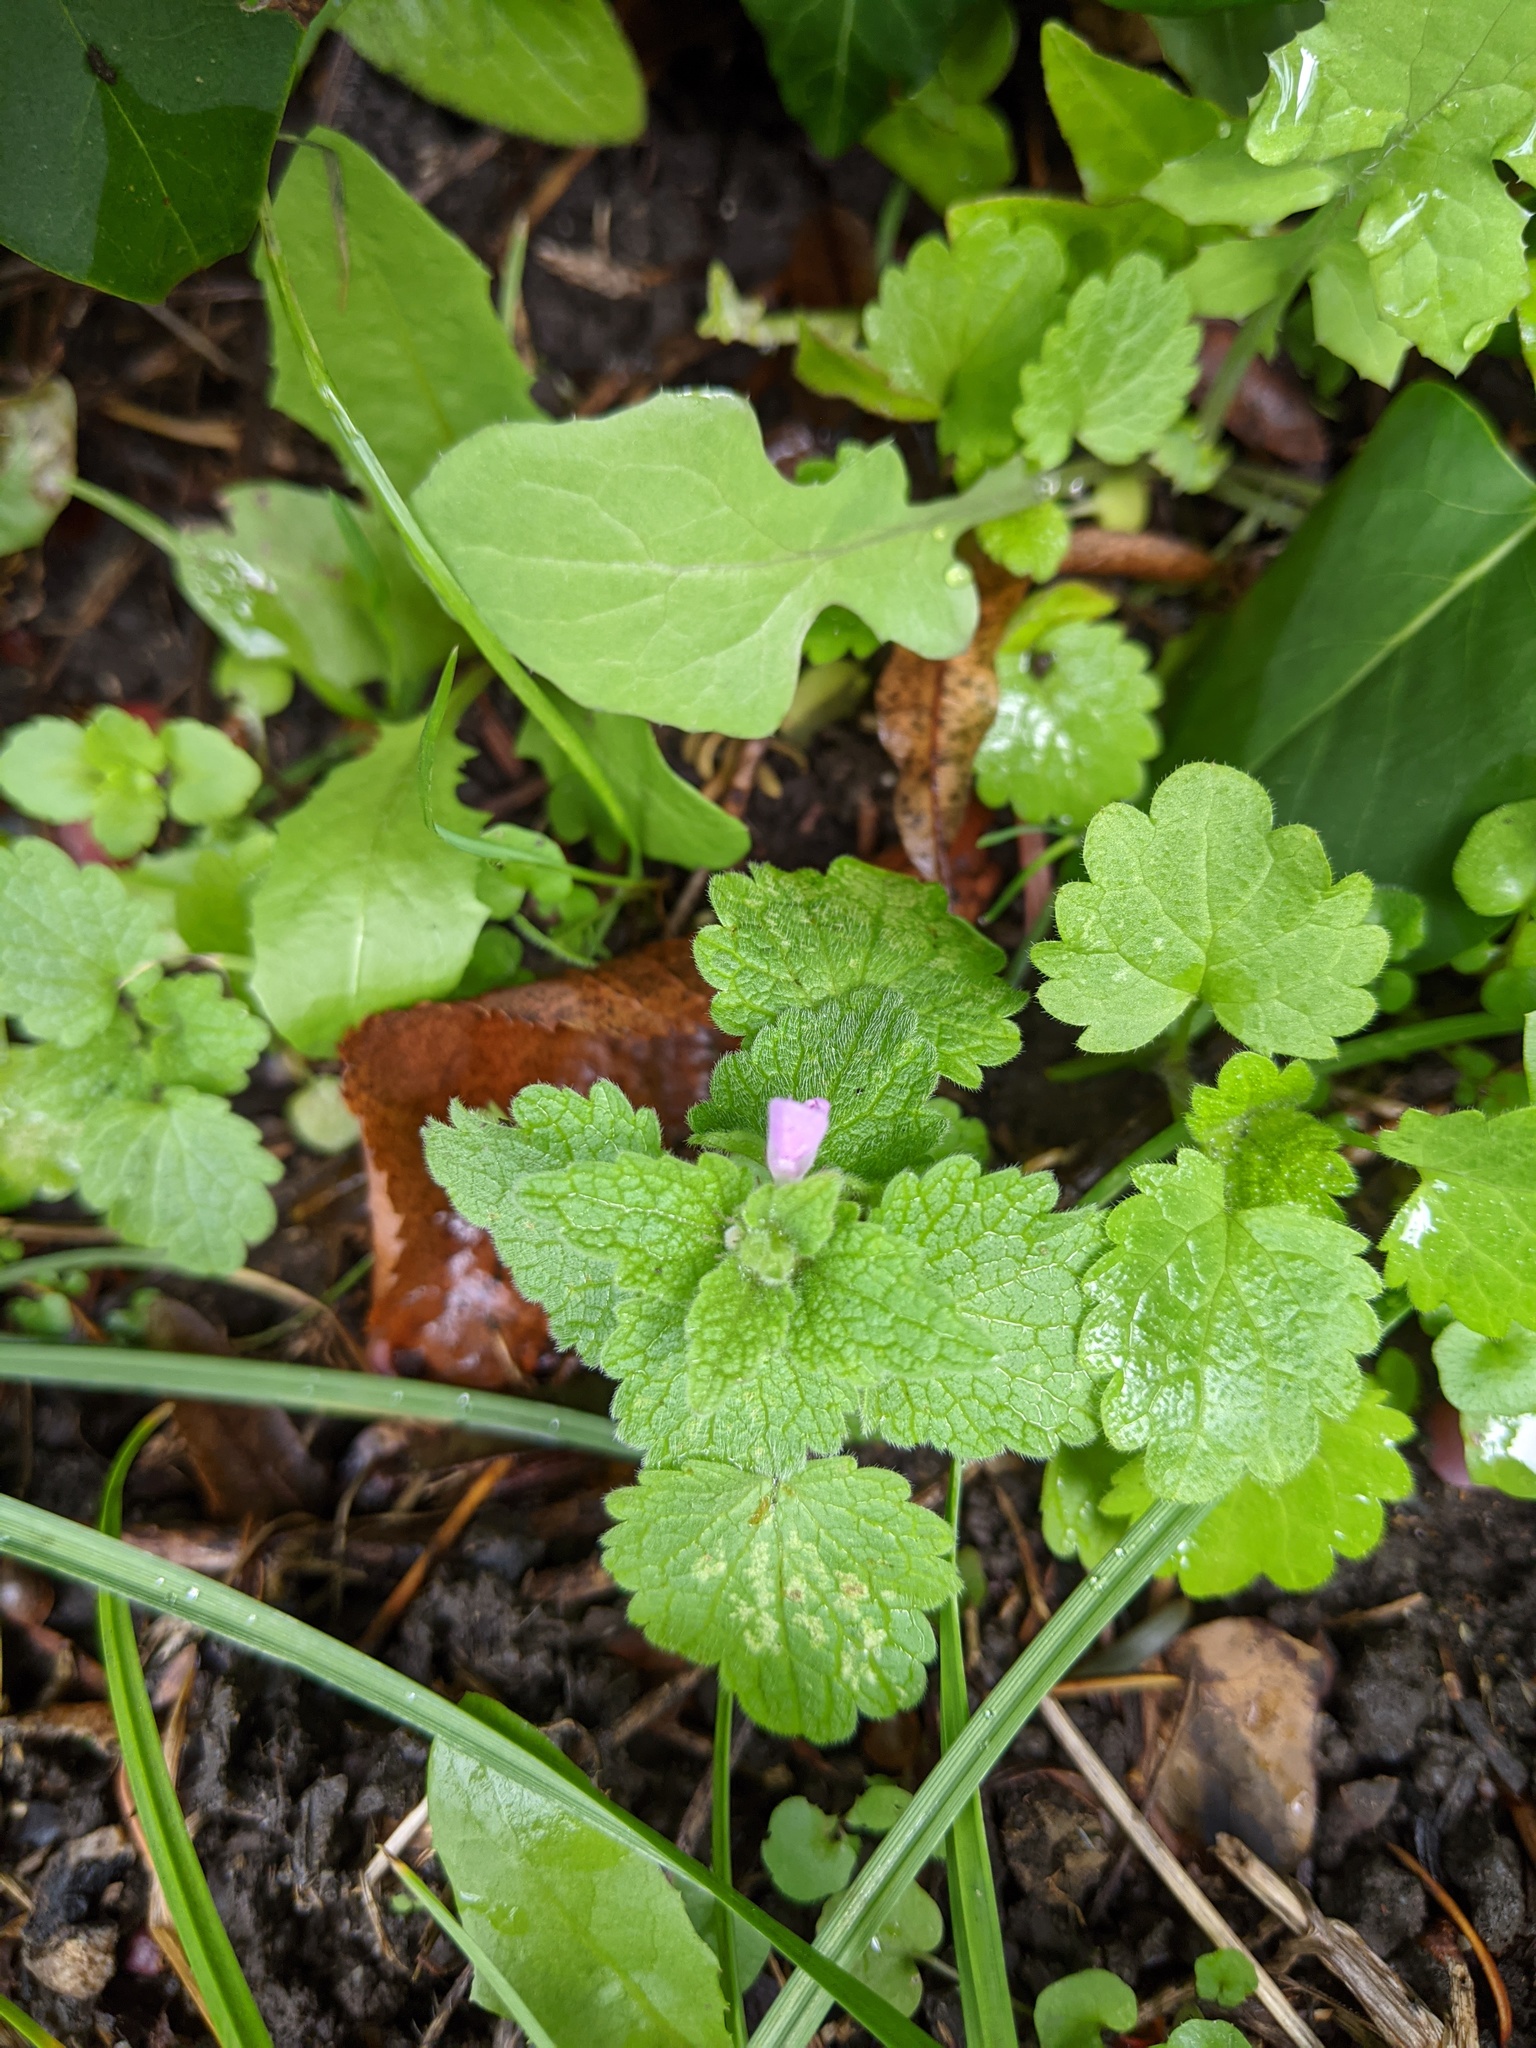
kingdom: Plantae
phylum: Tracheophyta
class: Magnoliopsida
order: Lamiales
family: Lamiaceae
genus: Lamium
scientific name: Lamium purpureum
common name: Red dead-nettle
